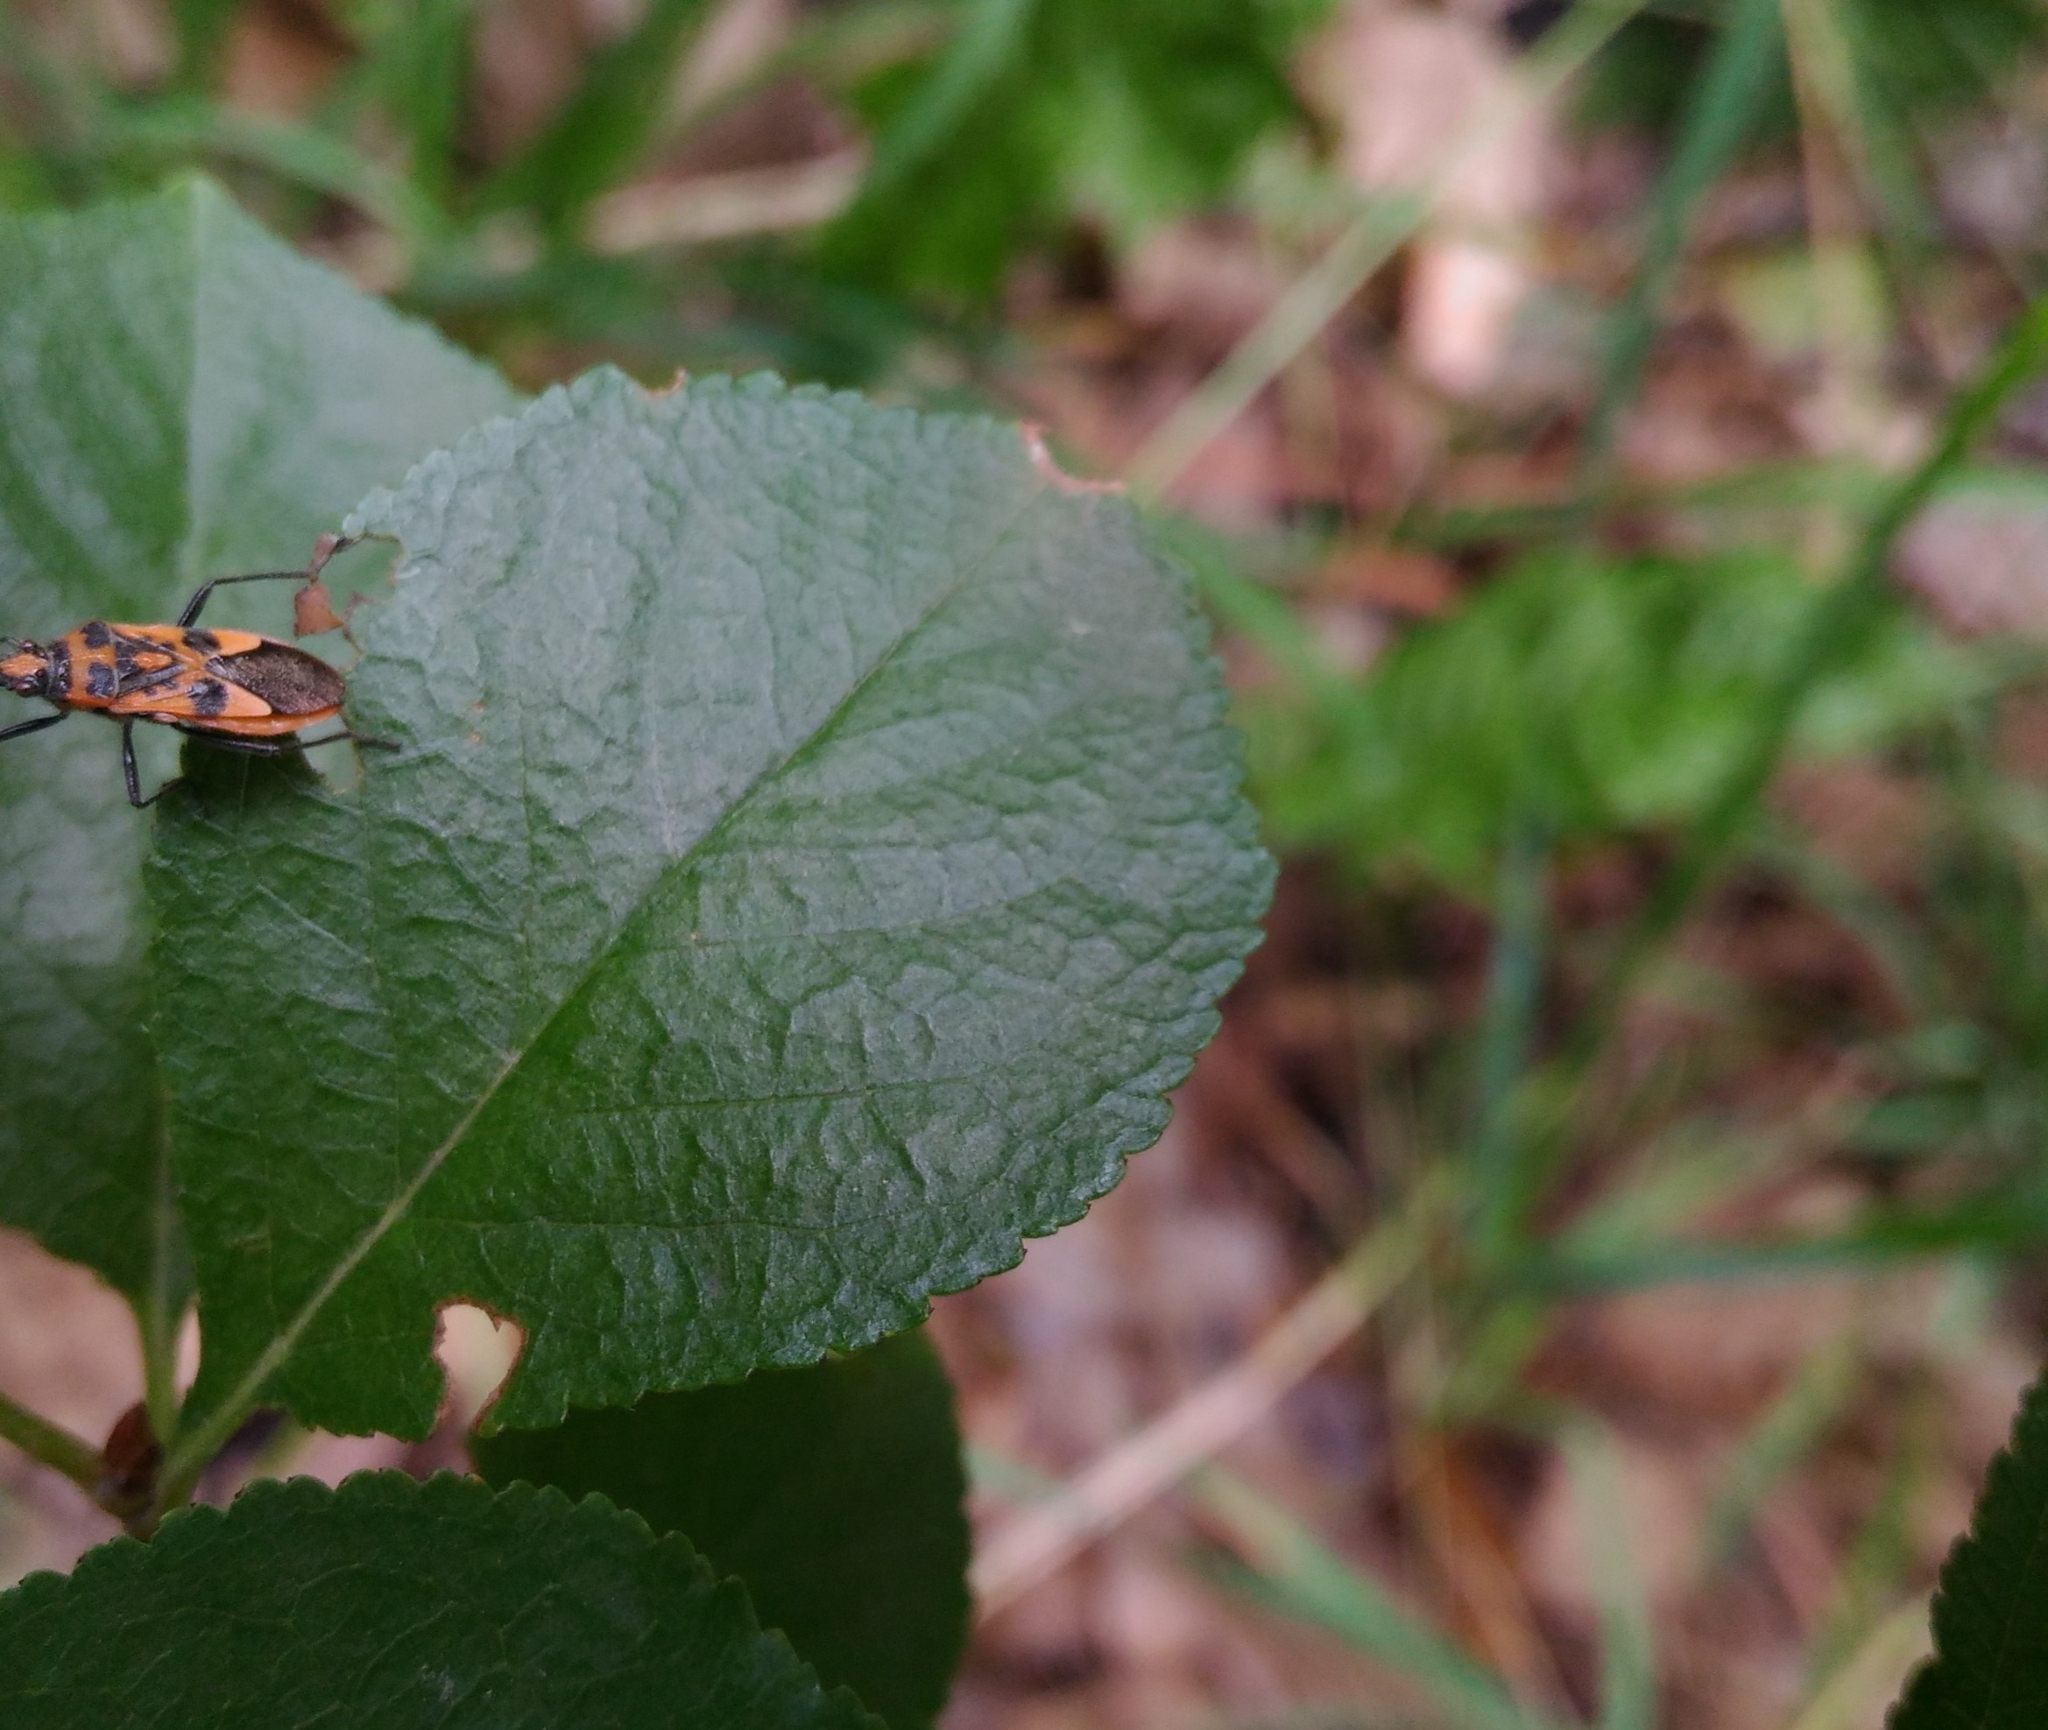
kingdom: Animalia
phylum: Arthropoda
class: Insecta
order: Hemiptera
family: Rhopalidae
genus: Corizus
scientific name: Corizus hyoscyami
